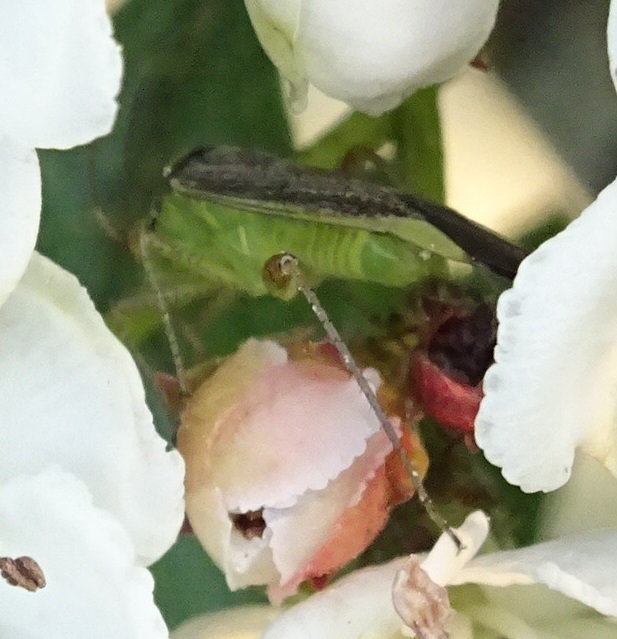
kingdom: Animalia
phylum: Arthropoda
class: Insecta
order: Hemiptera
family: Miridae
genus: Closterotomus
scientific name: Closterotomus trivialis
